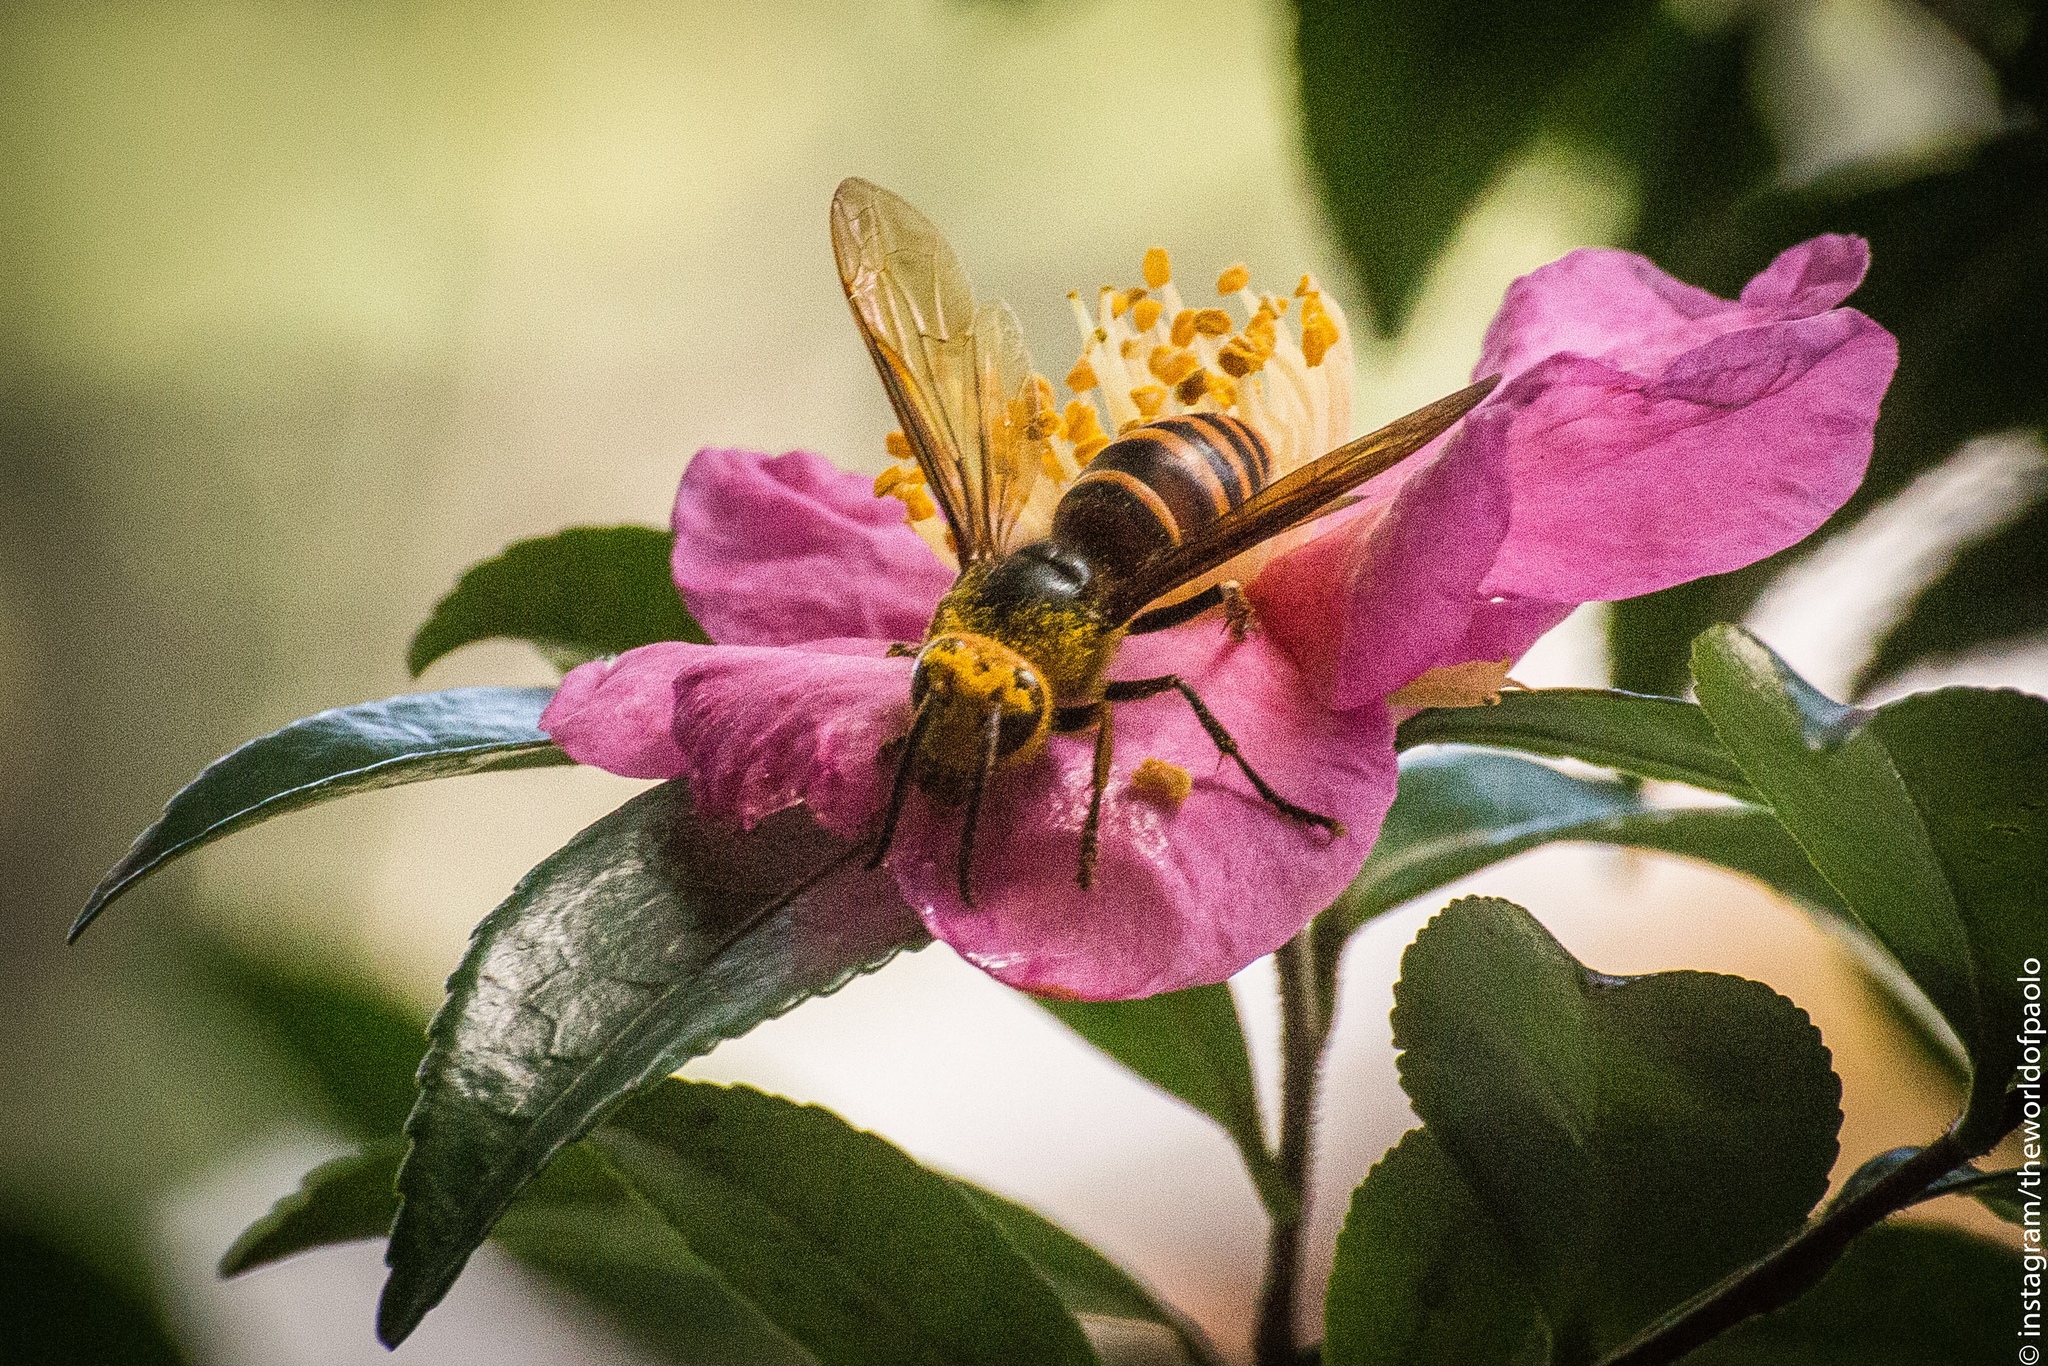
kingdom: Animalia
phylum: Arthropoda
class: Insecta
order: Hymenoptera
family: Vespidae
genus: Vespa
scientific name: Vespa analis
